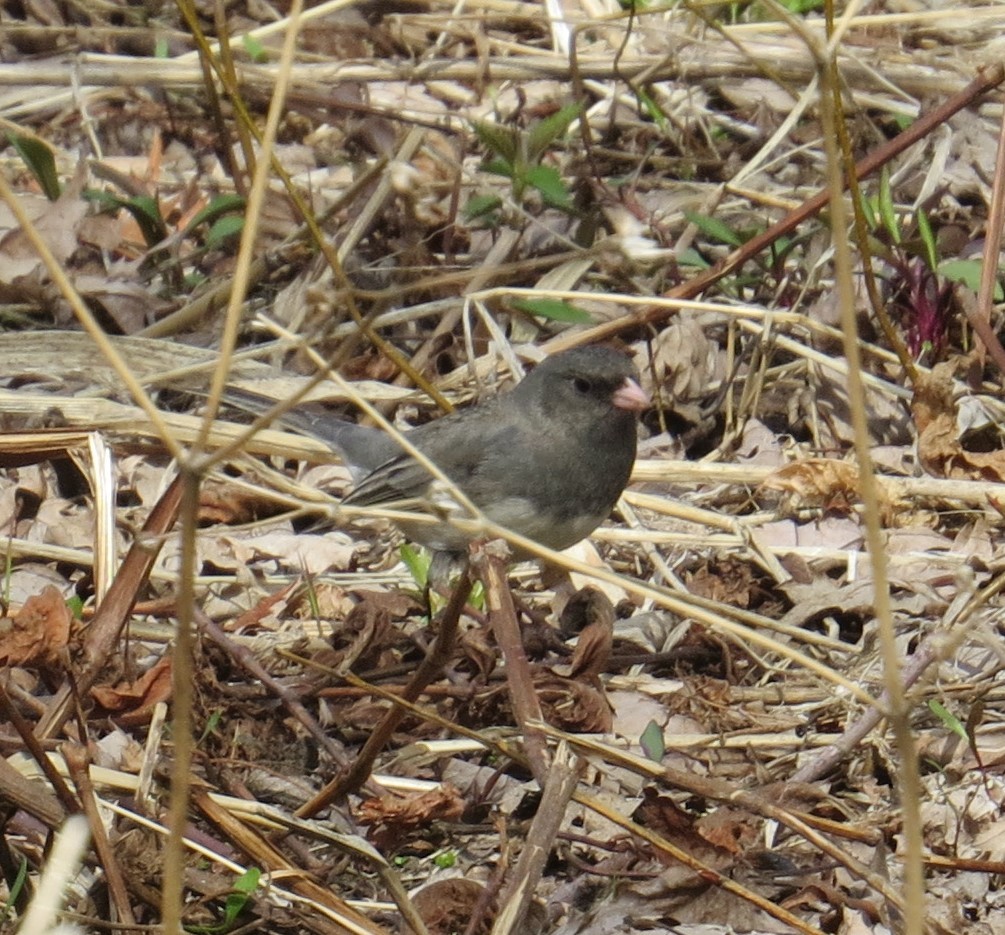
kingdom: Animalia
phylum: Chordata
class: Aves
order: Passeriformes
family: Passerellidae
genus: Junco
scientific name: Junco hyemalis
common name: Dark-eyed junco
